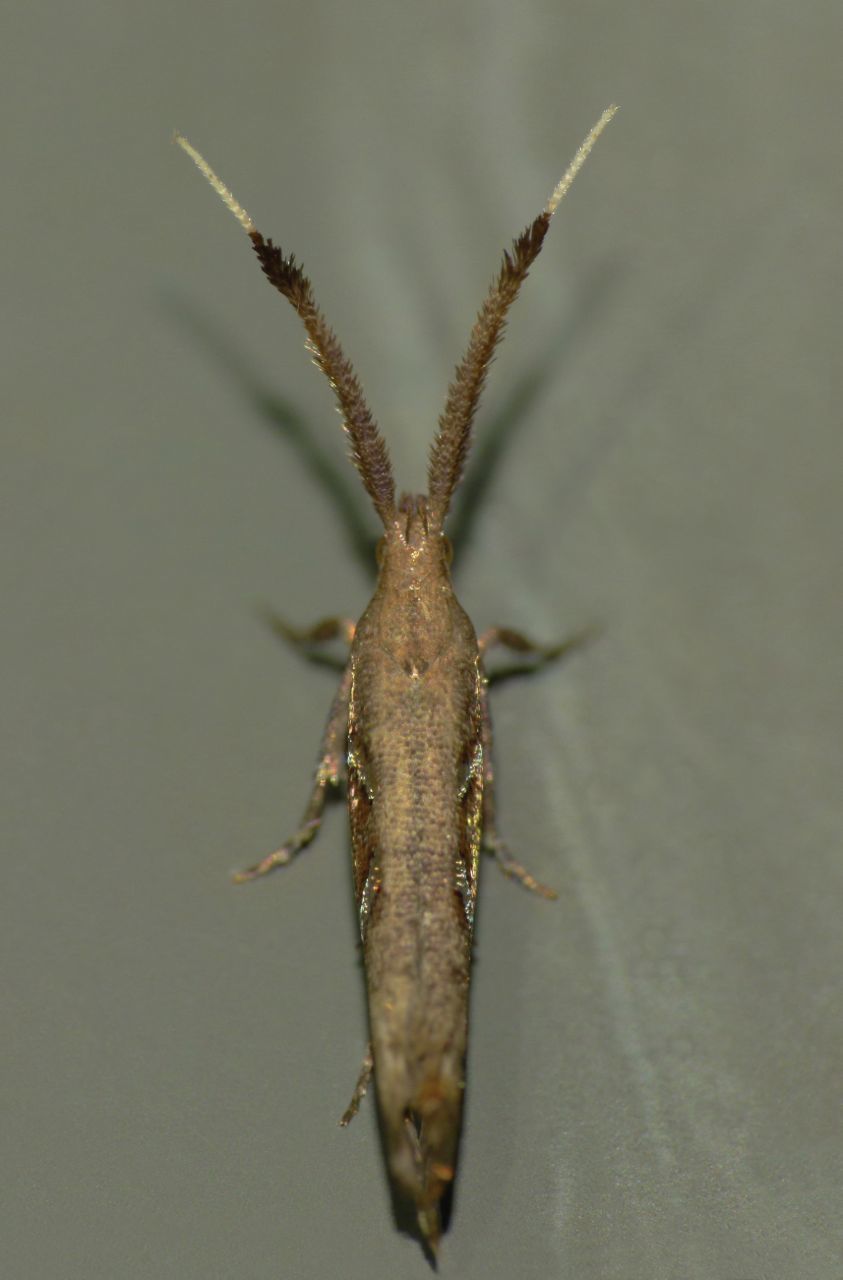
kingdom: Animalia
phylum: Arthropoda
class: Insecta
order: Lepidoptera
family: Plutellidae
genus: Protosynaema
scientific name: Protosynaema steropucha
